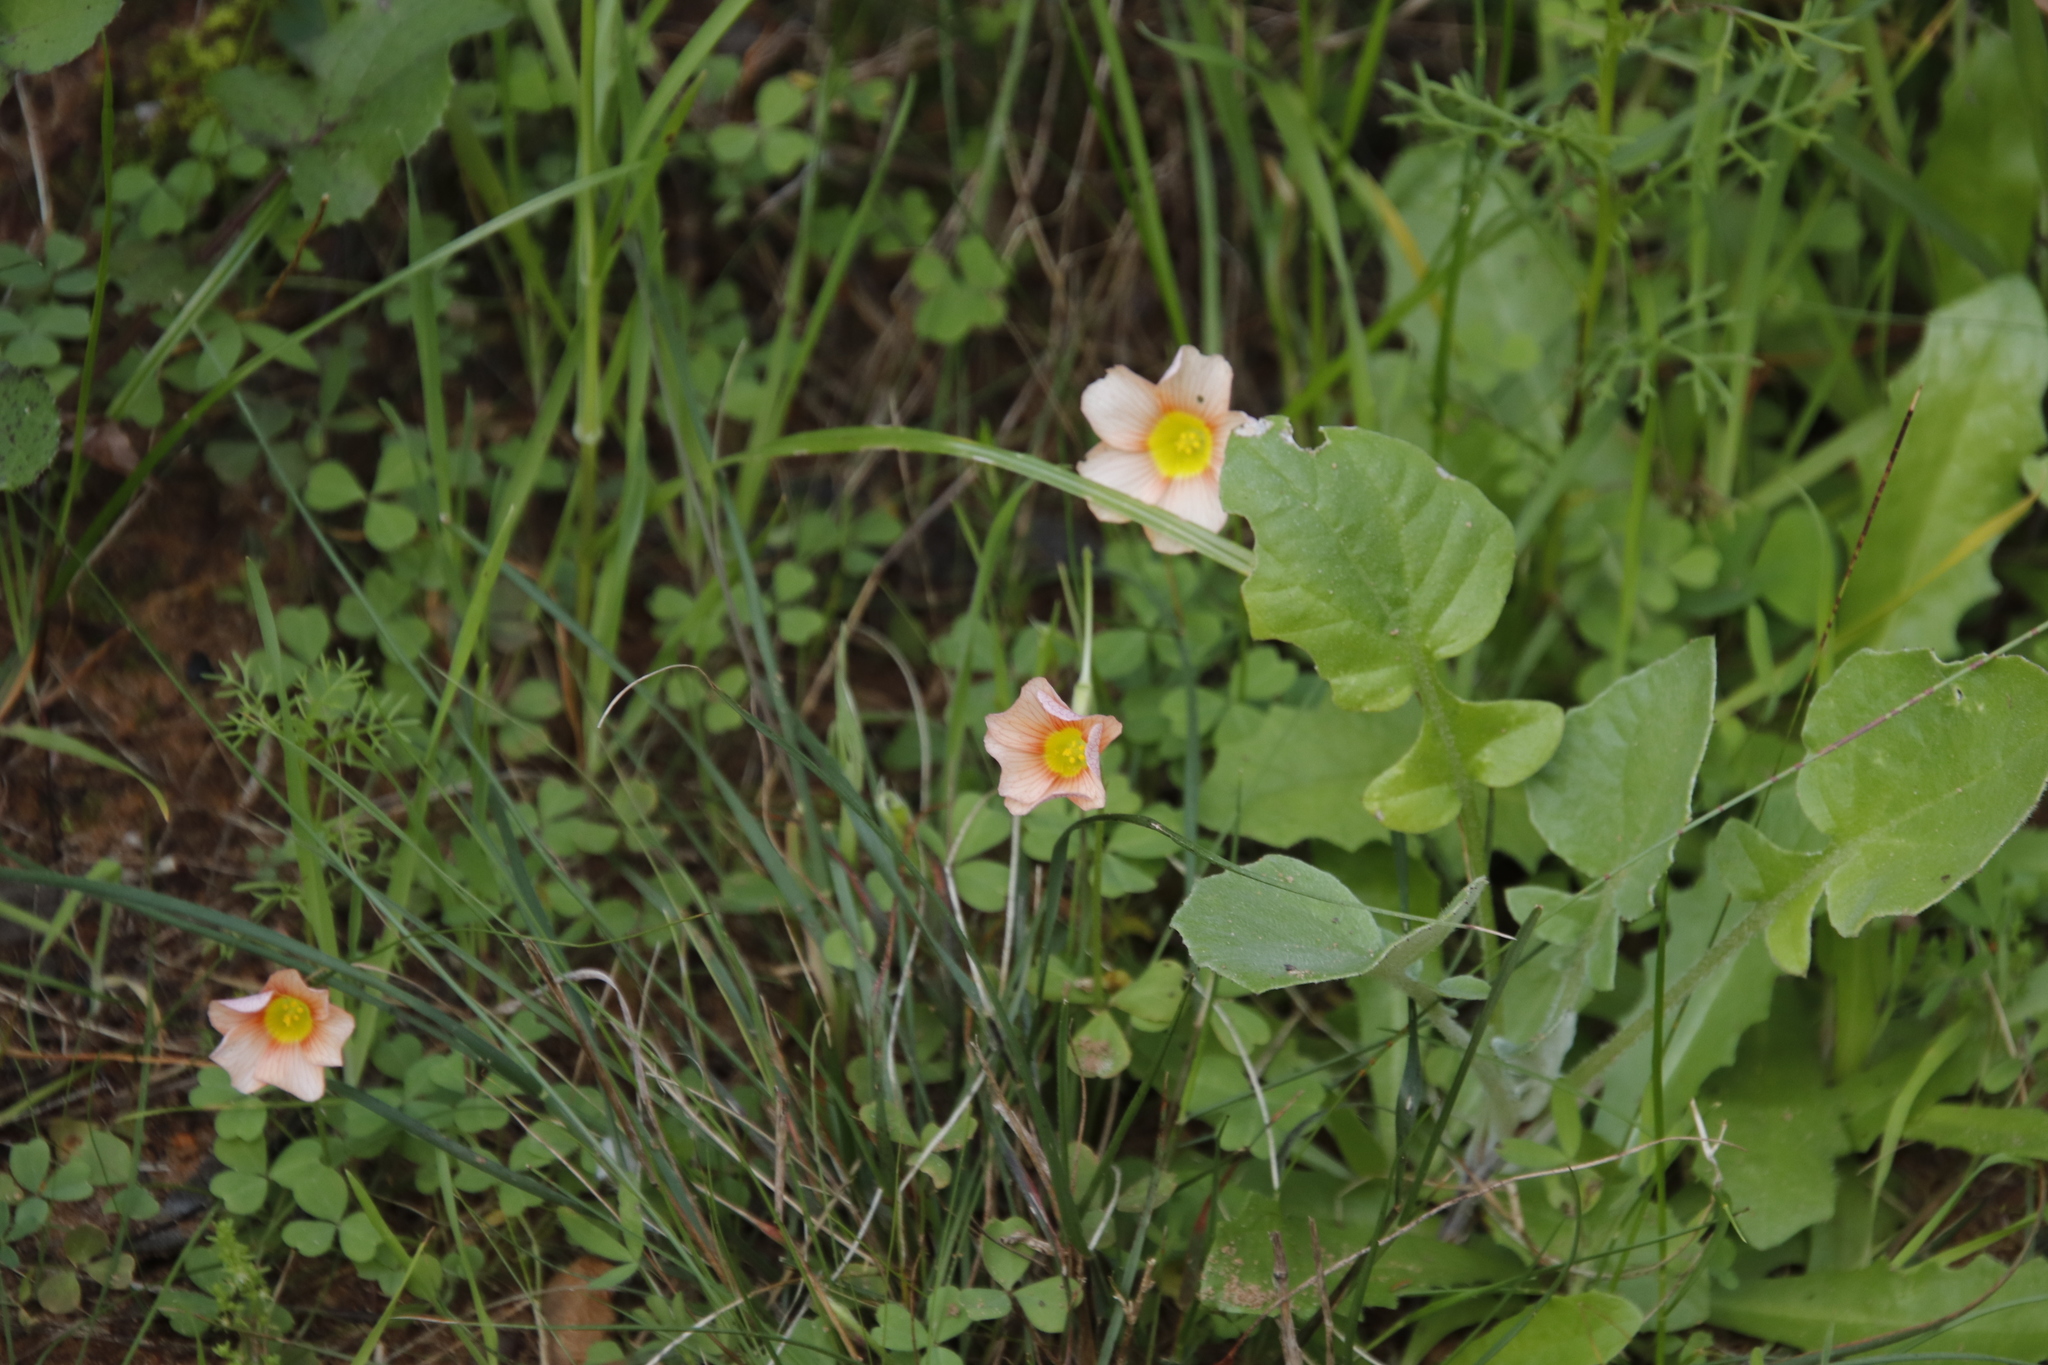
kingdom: Plantae
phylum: Tracheophyta
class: Magnoliopsida
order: Oxalidales
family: Oxalidaceae
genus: Oxalis
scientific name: Oxalis obtusa
